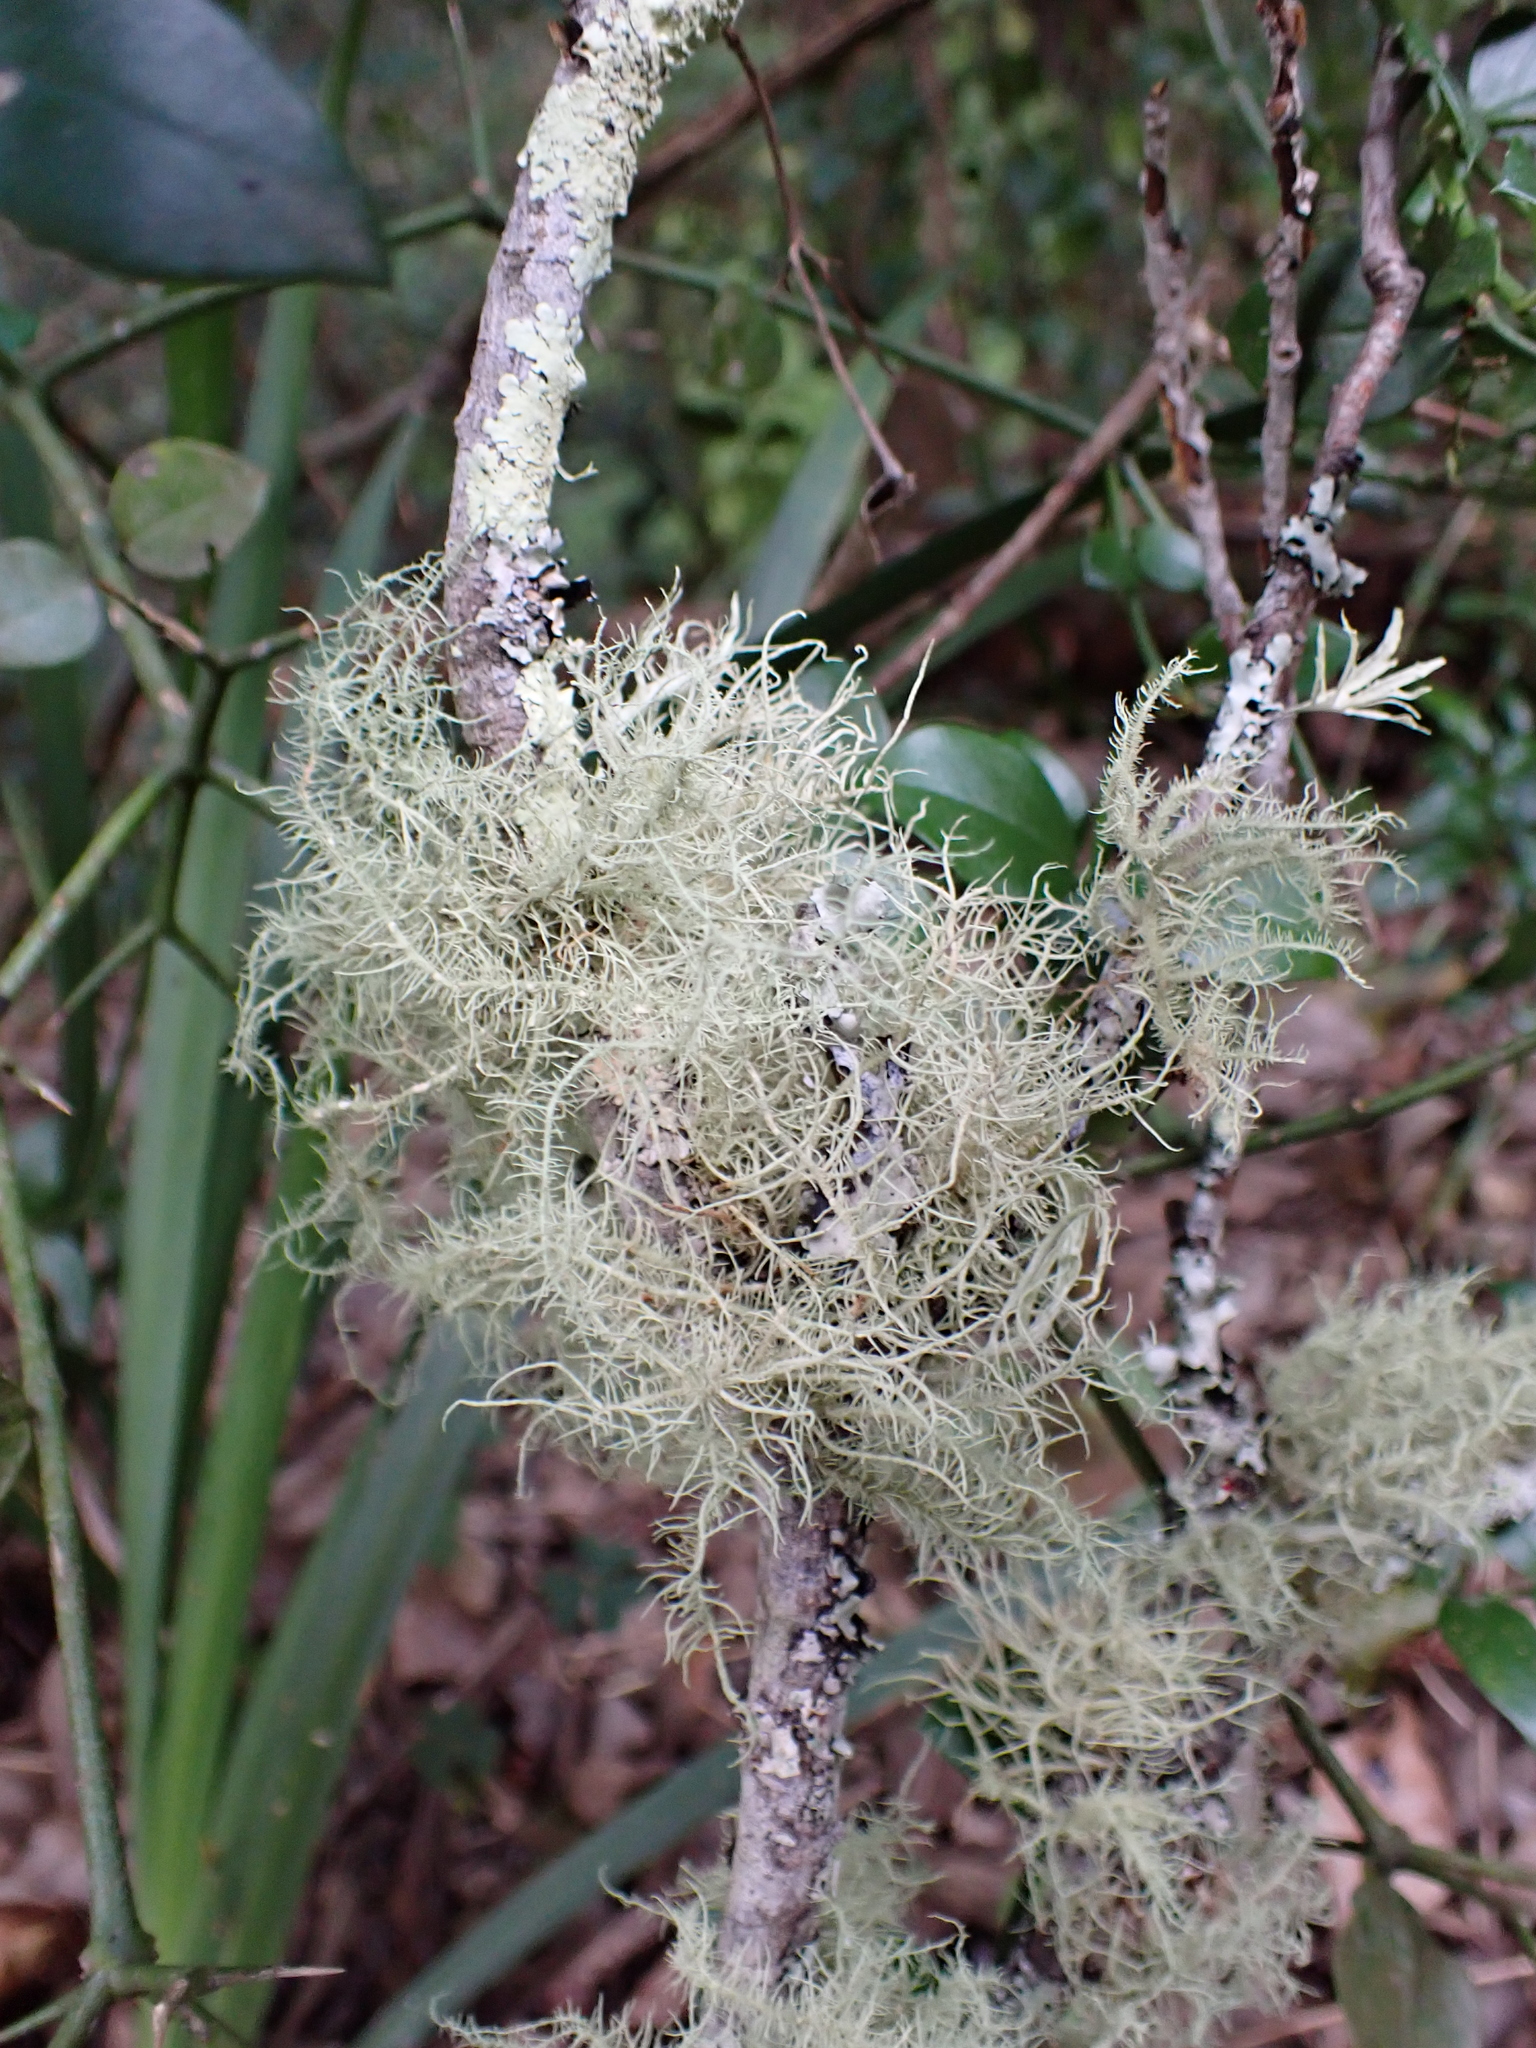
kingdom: Fungi
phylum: Ascomycota
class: Lecanoromycetes
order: Lecanorales
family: Parmeliaceae
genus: Usnea
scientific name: Usnea barbata
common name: Old man's beard lichen
